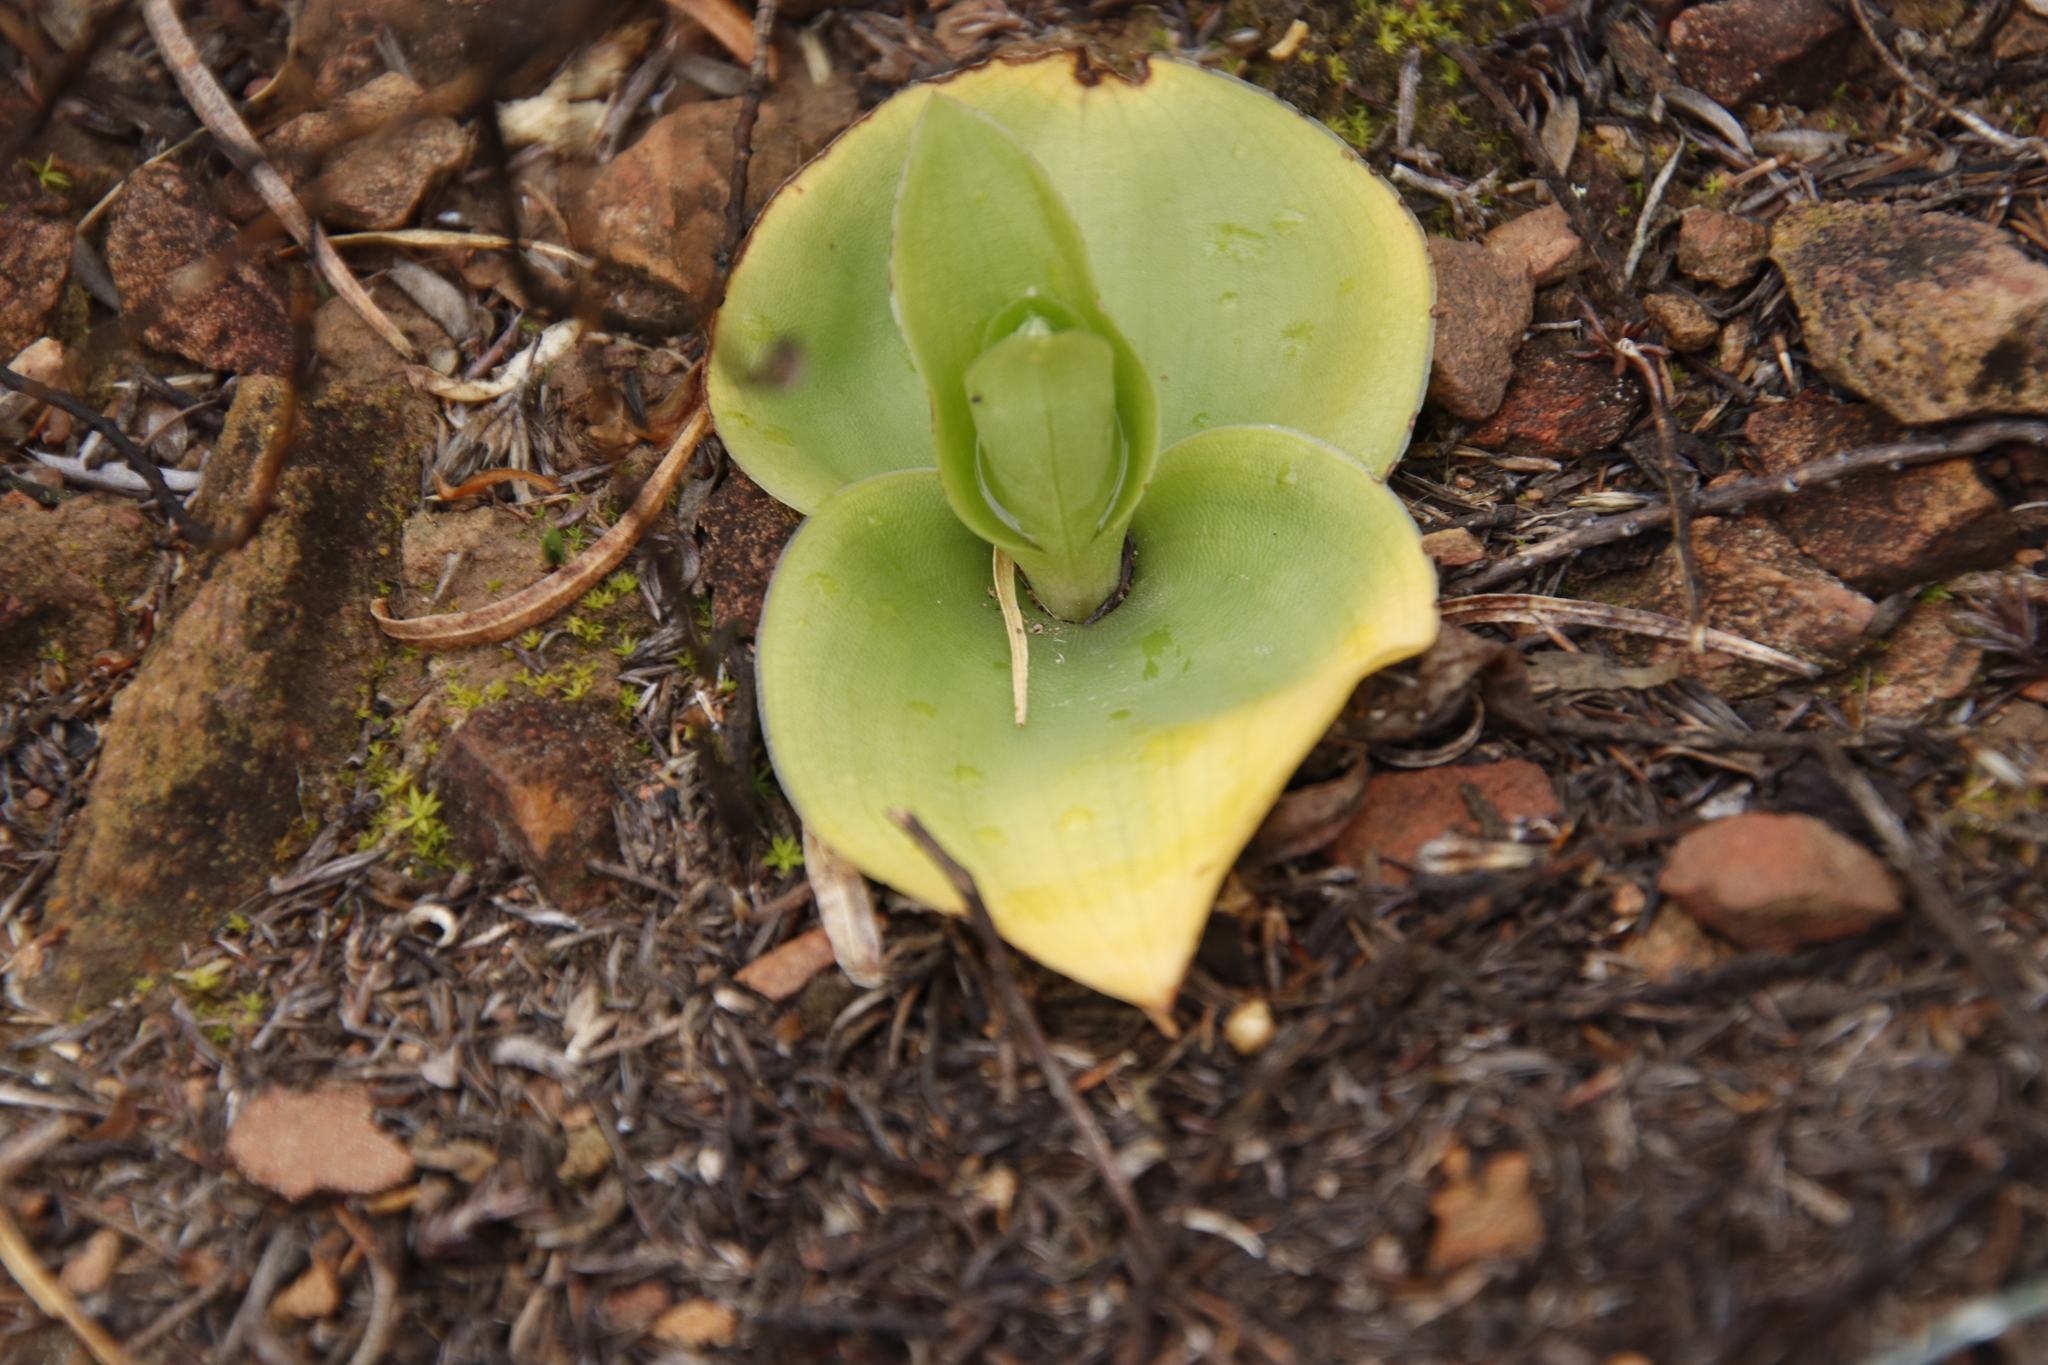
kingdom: Plantae
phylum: Tracheophyta
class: Liliopsida
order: Asparagales
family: Orchidaceae
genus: Satyrium
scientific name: Satyrium pallens
